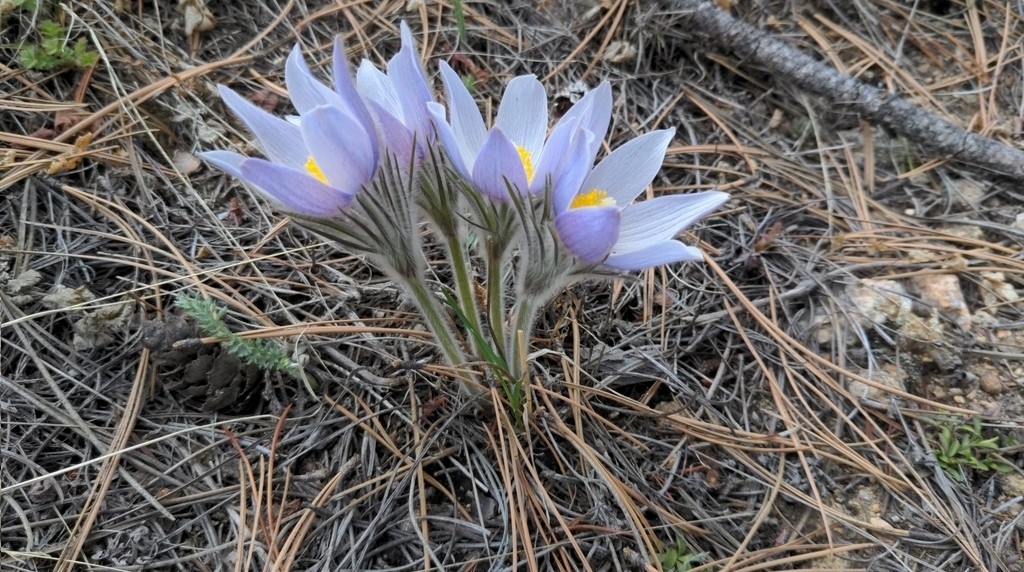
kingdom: Plantae
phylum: Tracheophyta
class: Magnoliopsida
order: Ranunculales
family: Ranunculaceae
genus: Pulsatilla
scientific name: Pulsatilla nuttalliana
